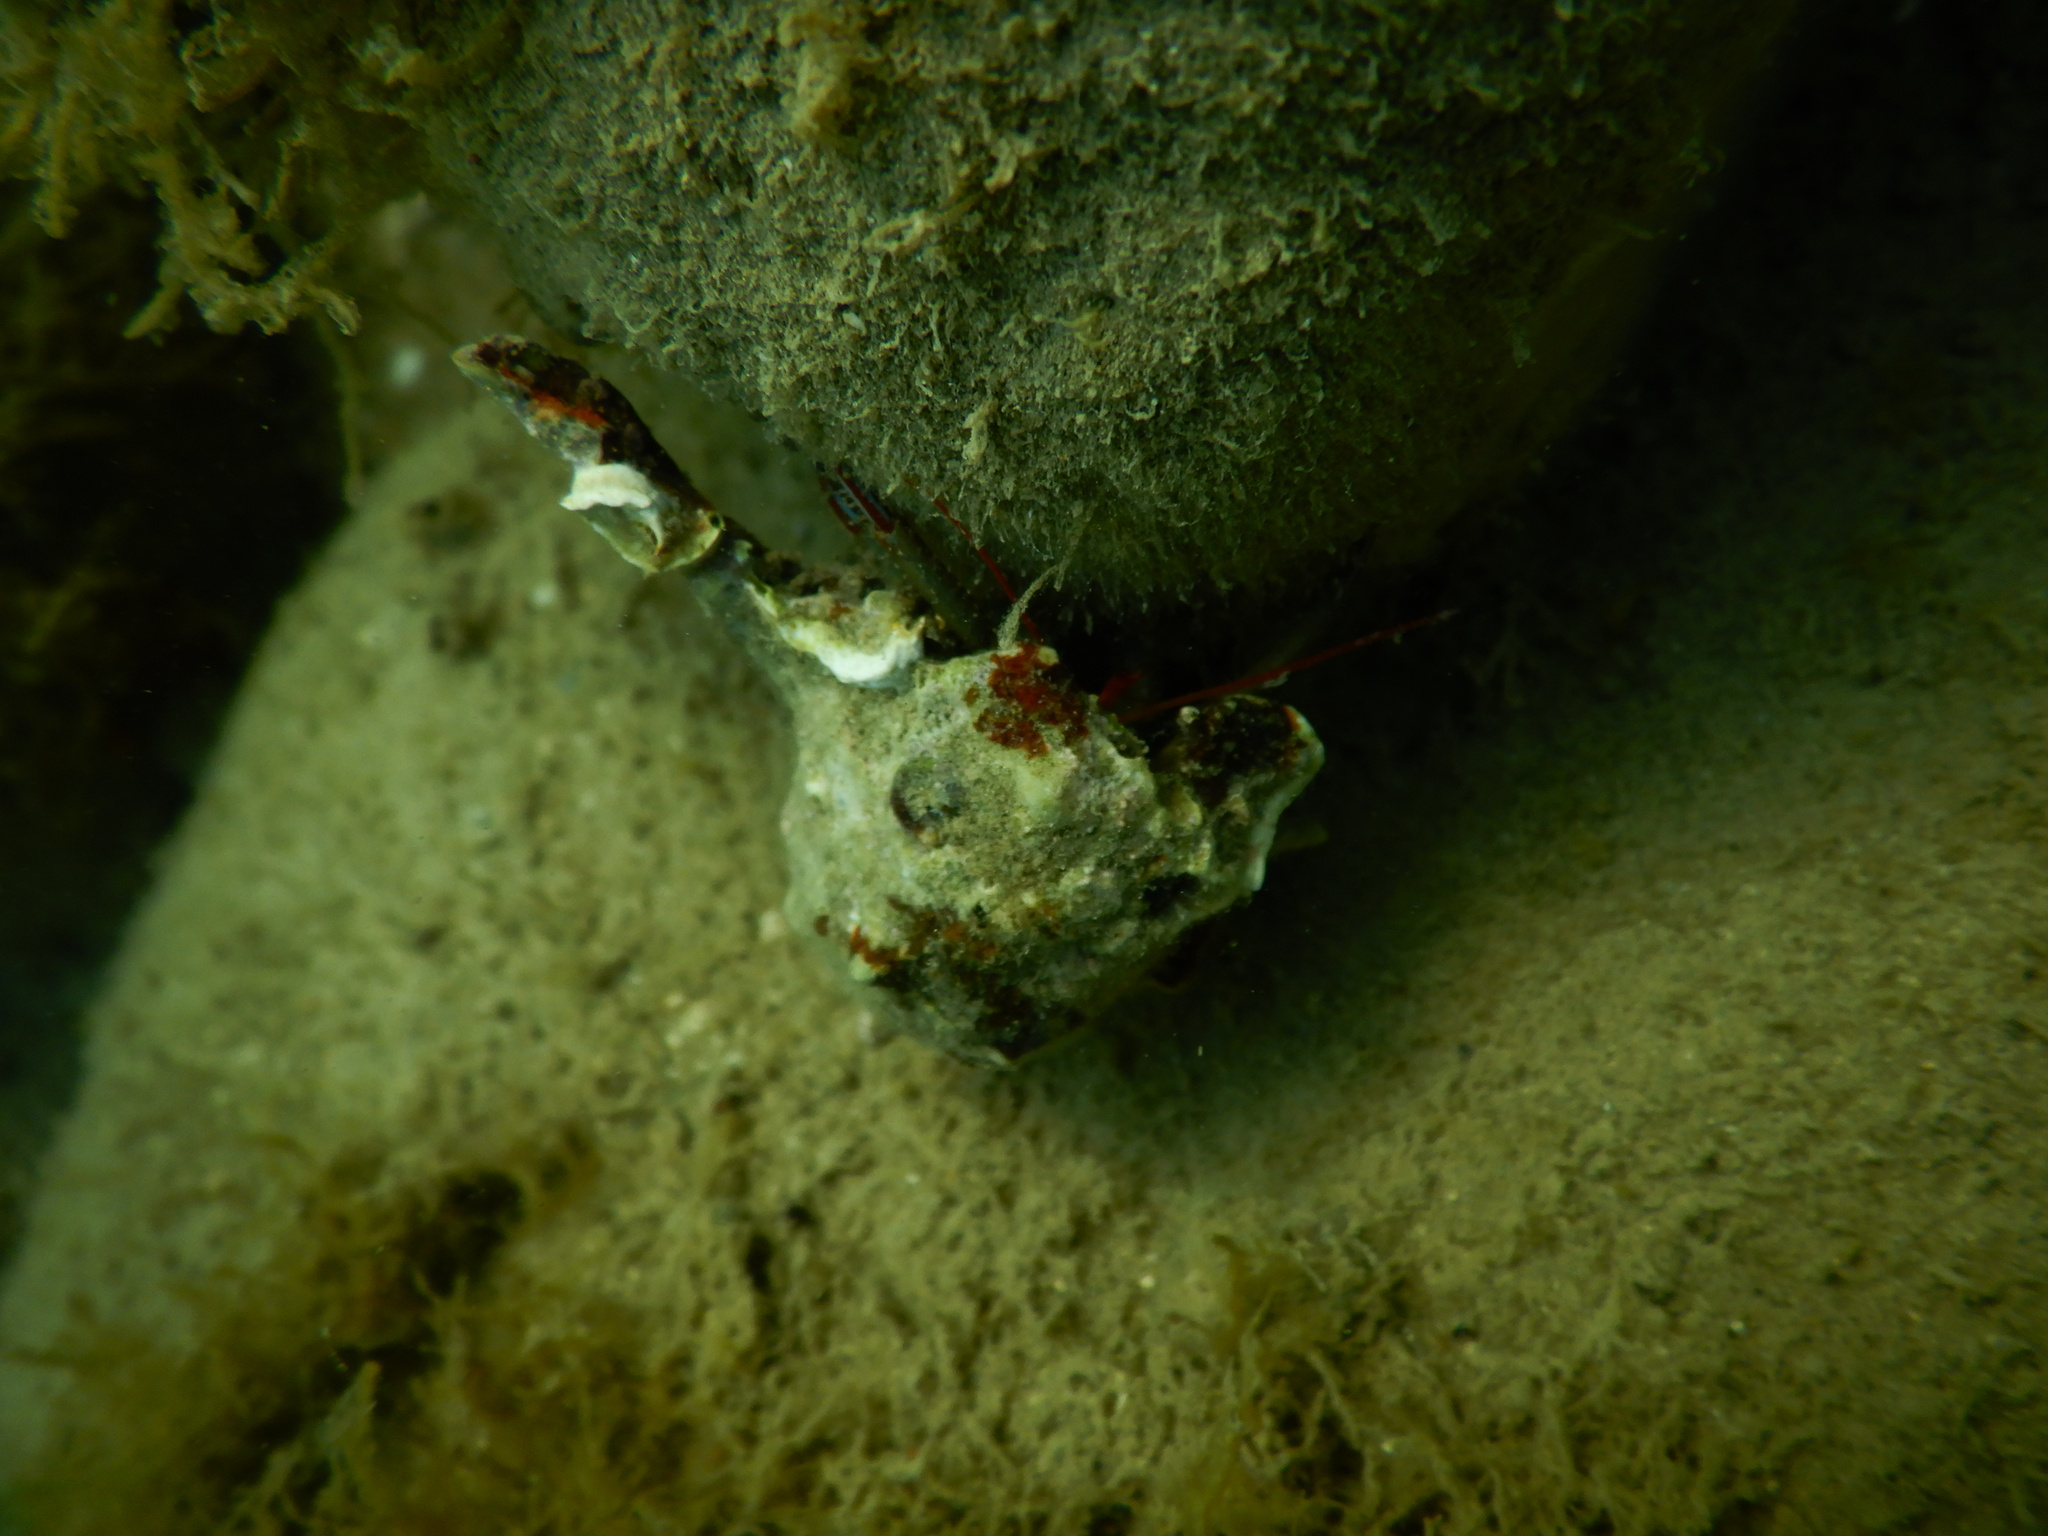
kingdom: Animalia
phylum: Arthropoda
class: Malacostraca
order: Decapoda
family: Diogenidae
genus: Clibanarius
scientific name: Clibanarius erythropus
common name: Hermit crab
